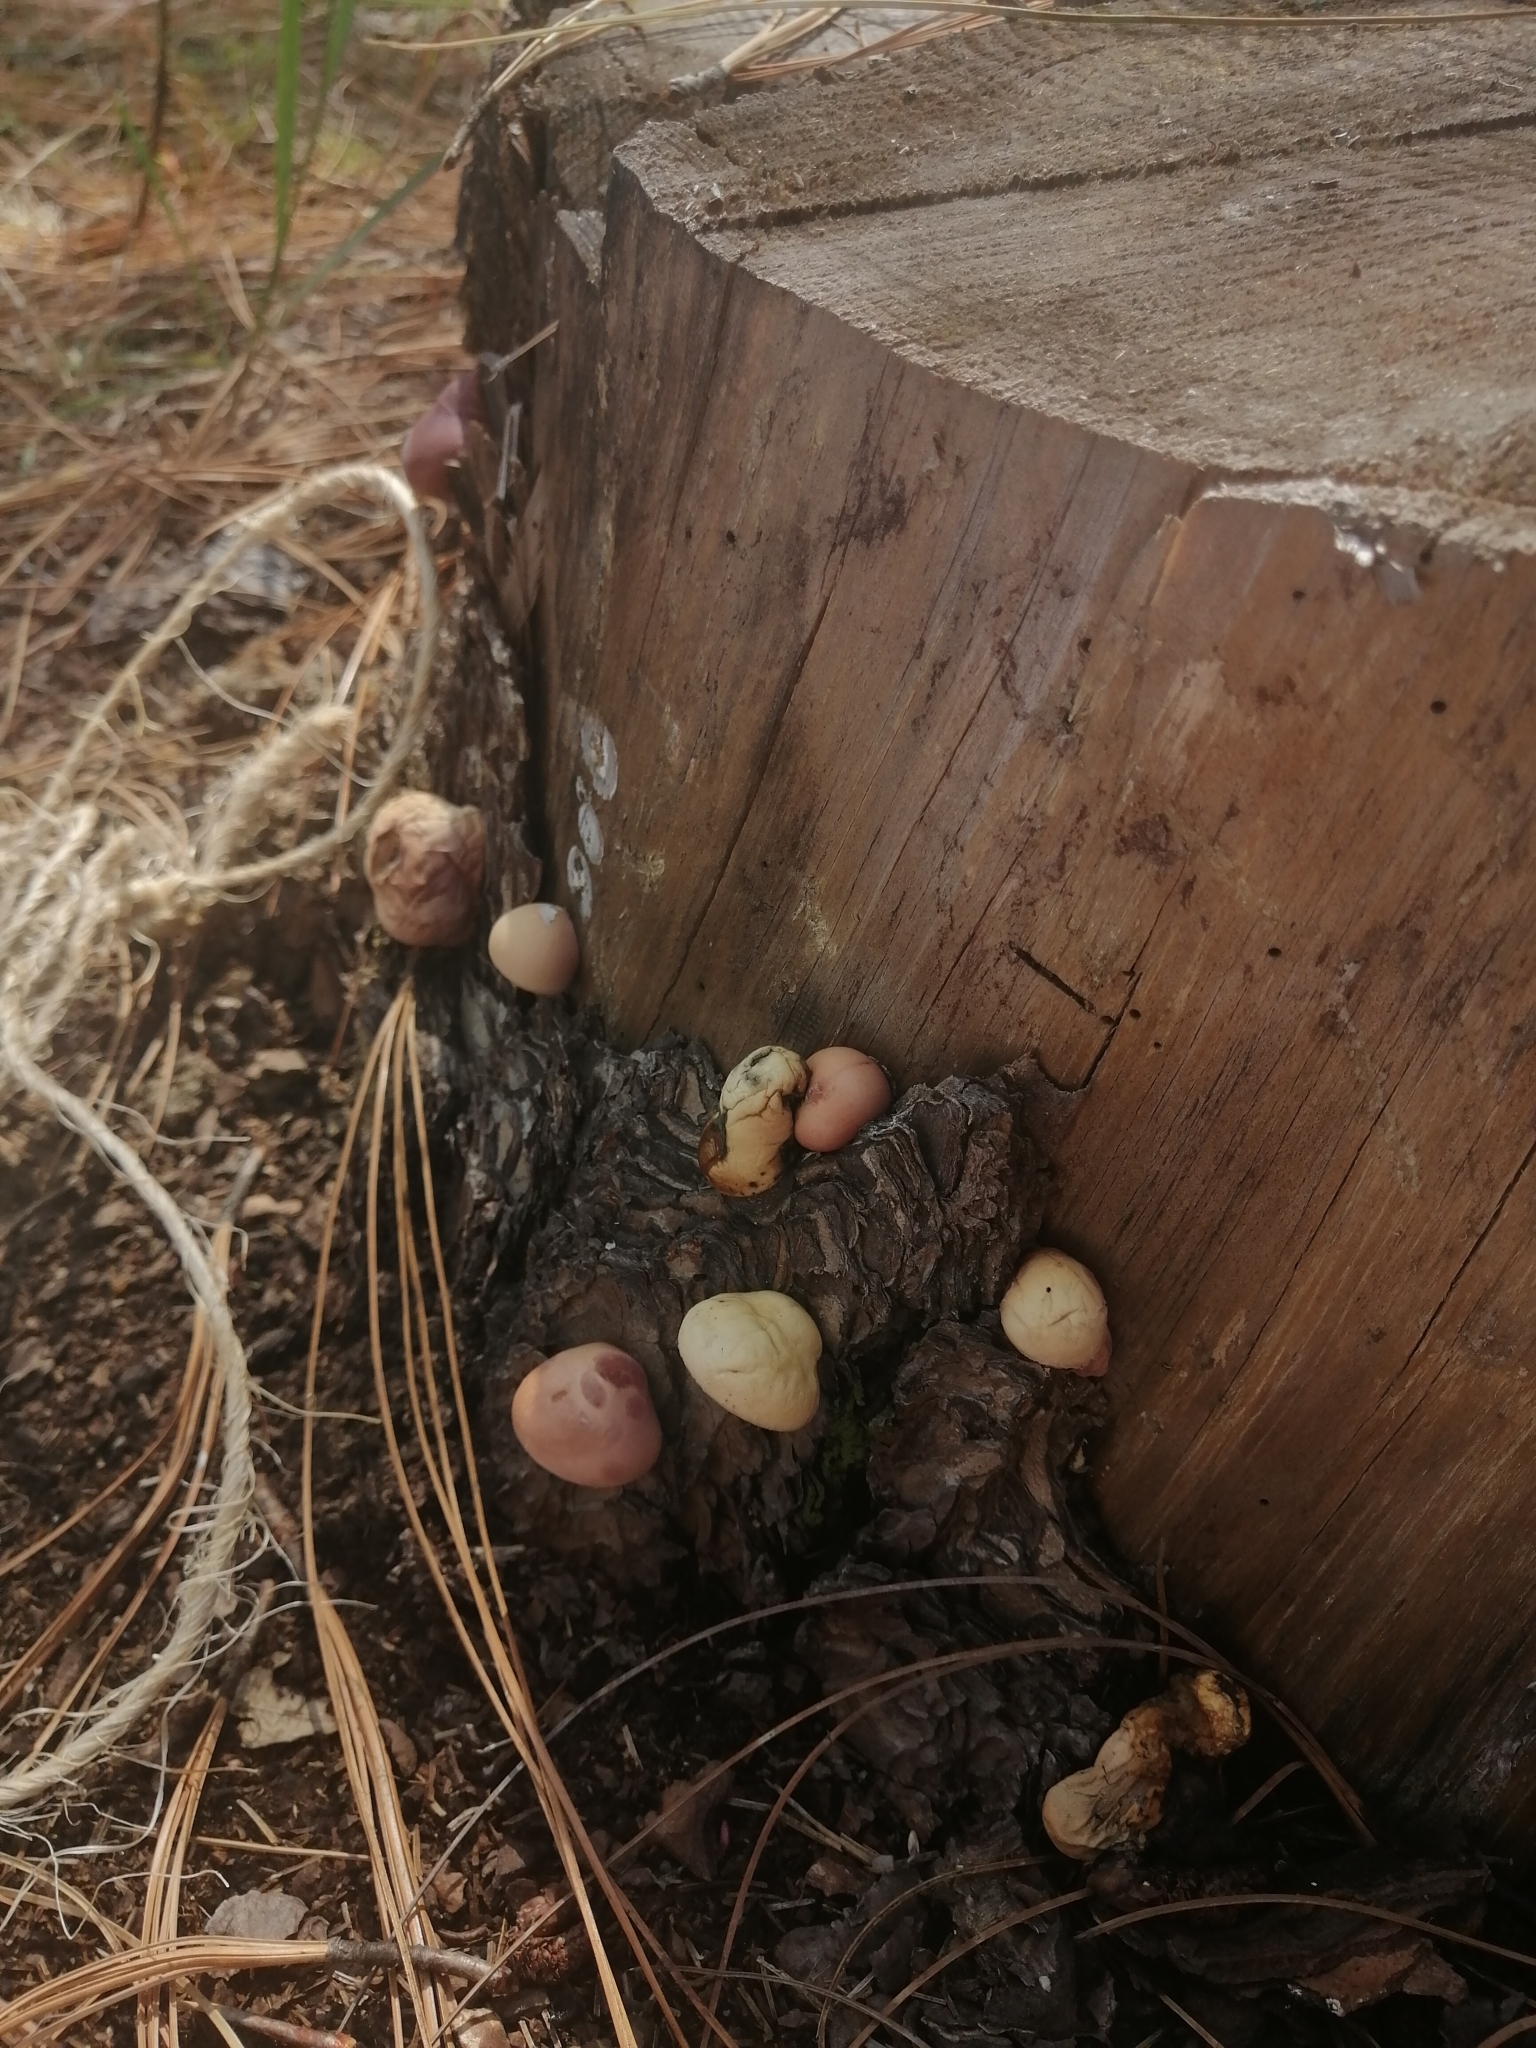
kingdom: Fungi
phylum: Basidiomycota
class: Agaricomycetes
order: Polyporales
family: Polyporaceae
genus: Cryptoporus
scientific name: Cryptoporus volvatus
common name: Veiled polypore
